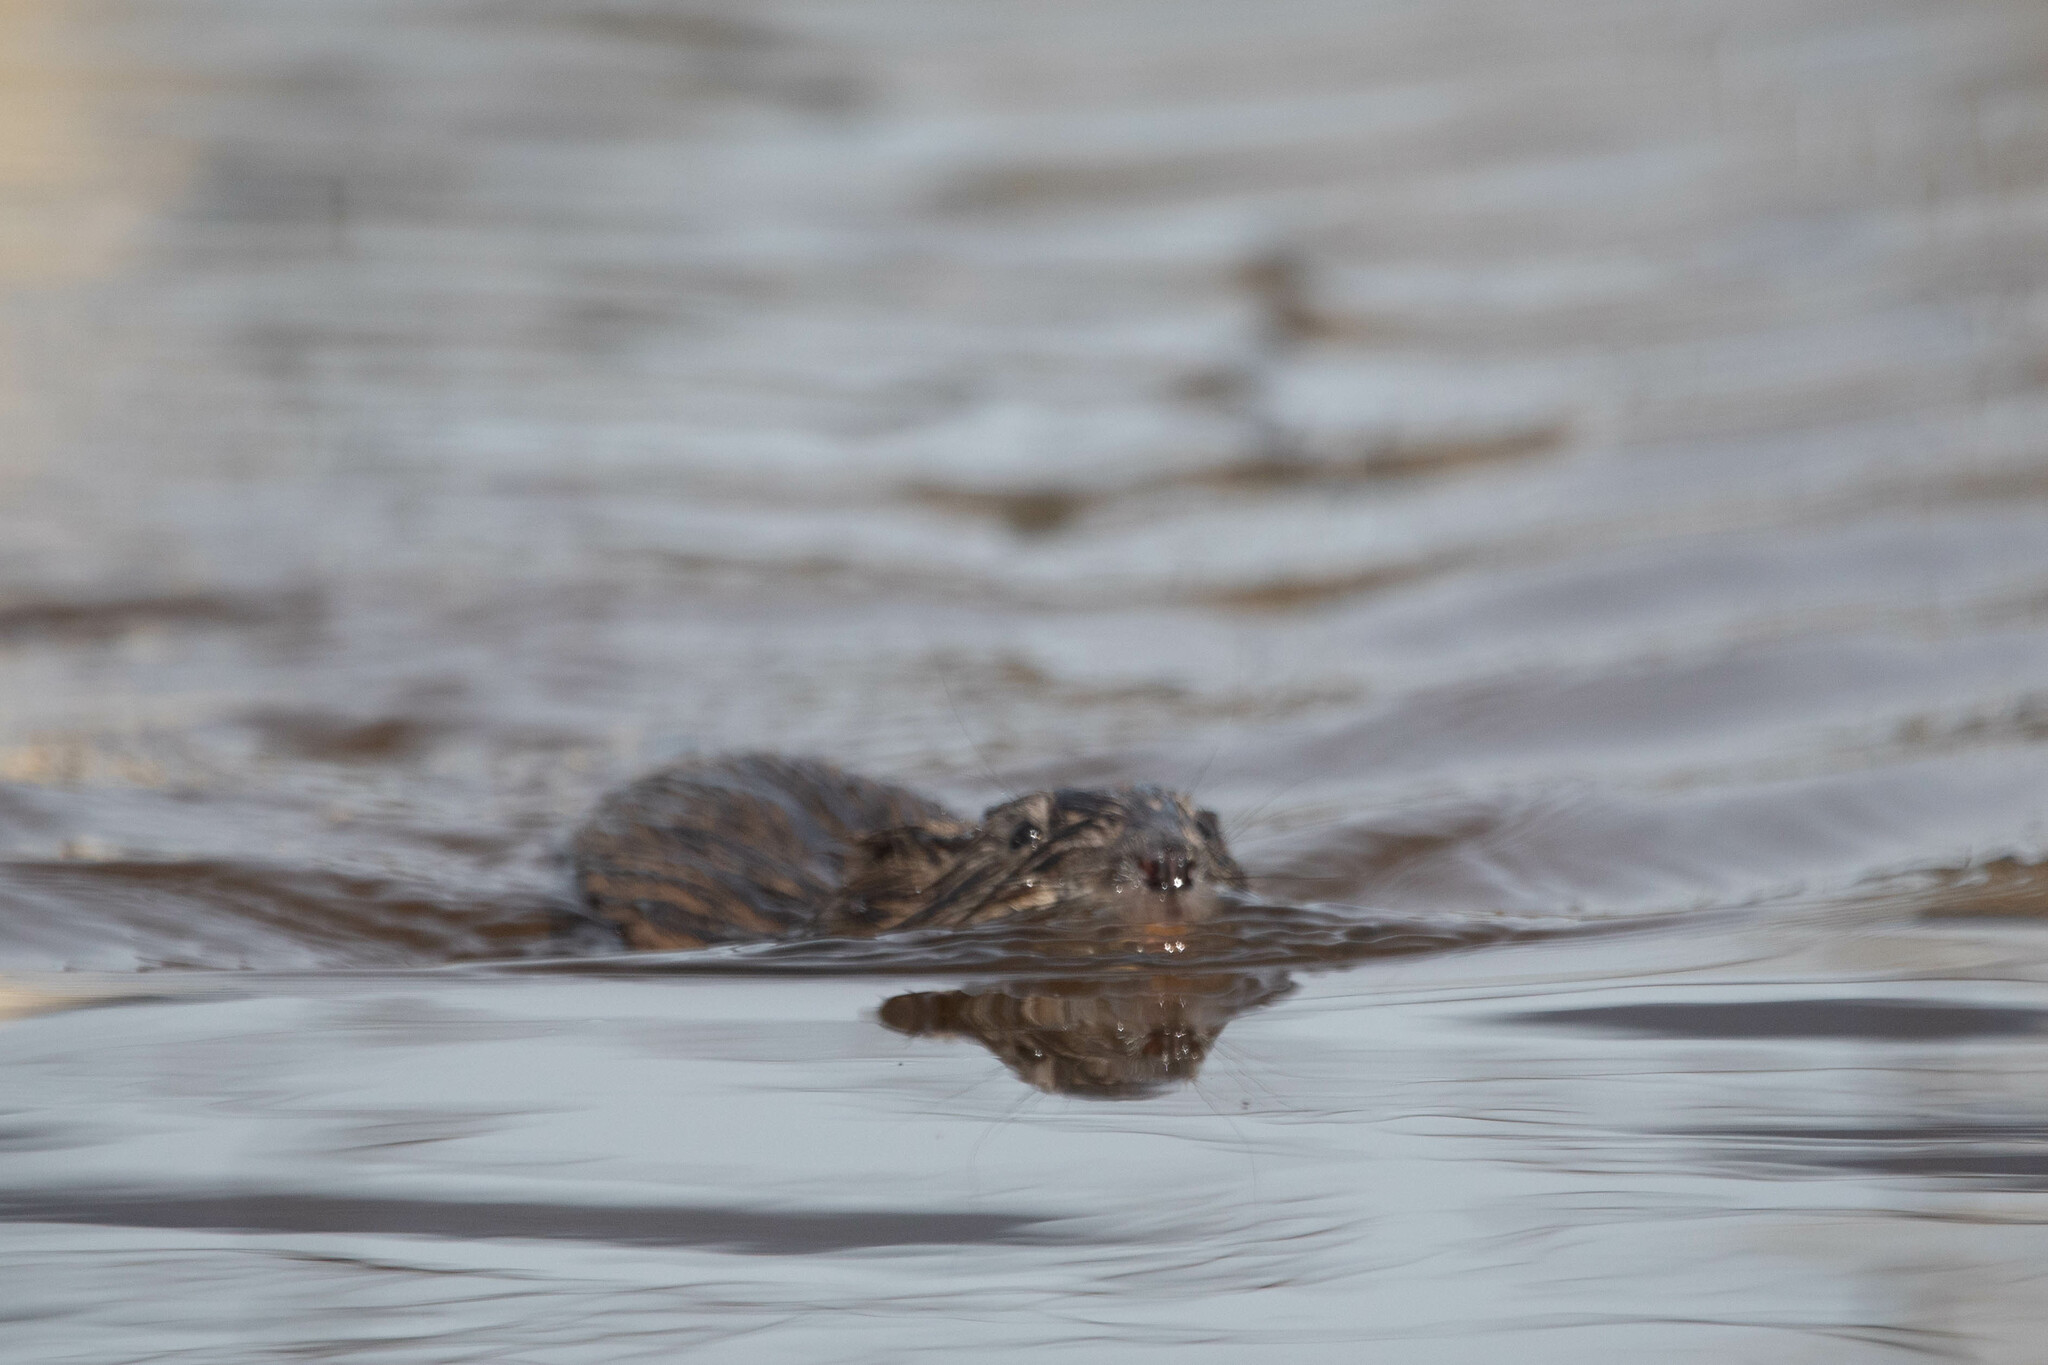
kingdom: Animalia
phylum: Chordata
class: Mammalia
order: Rodentia
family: Cricetidae
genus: Ondatra
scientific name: Ondatra zibethicus
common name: Muskrat
